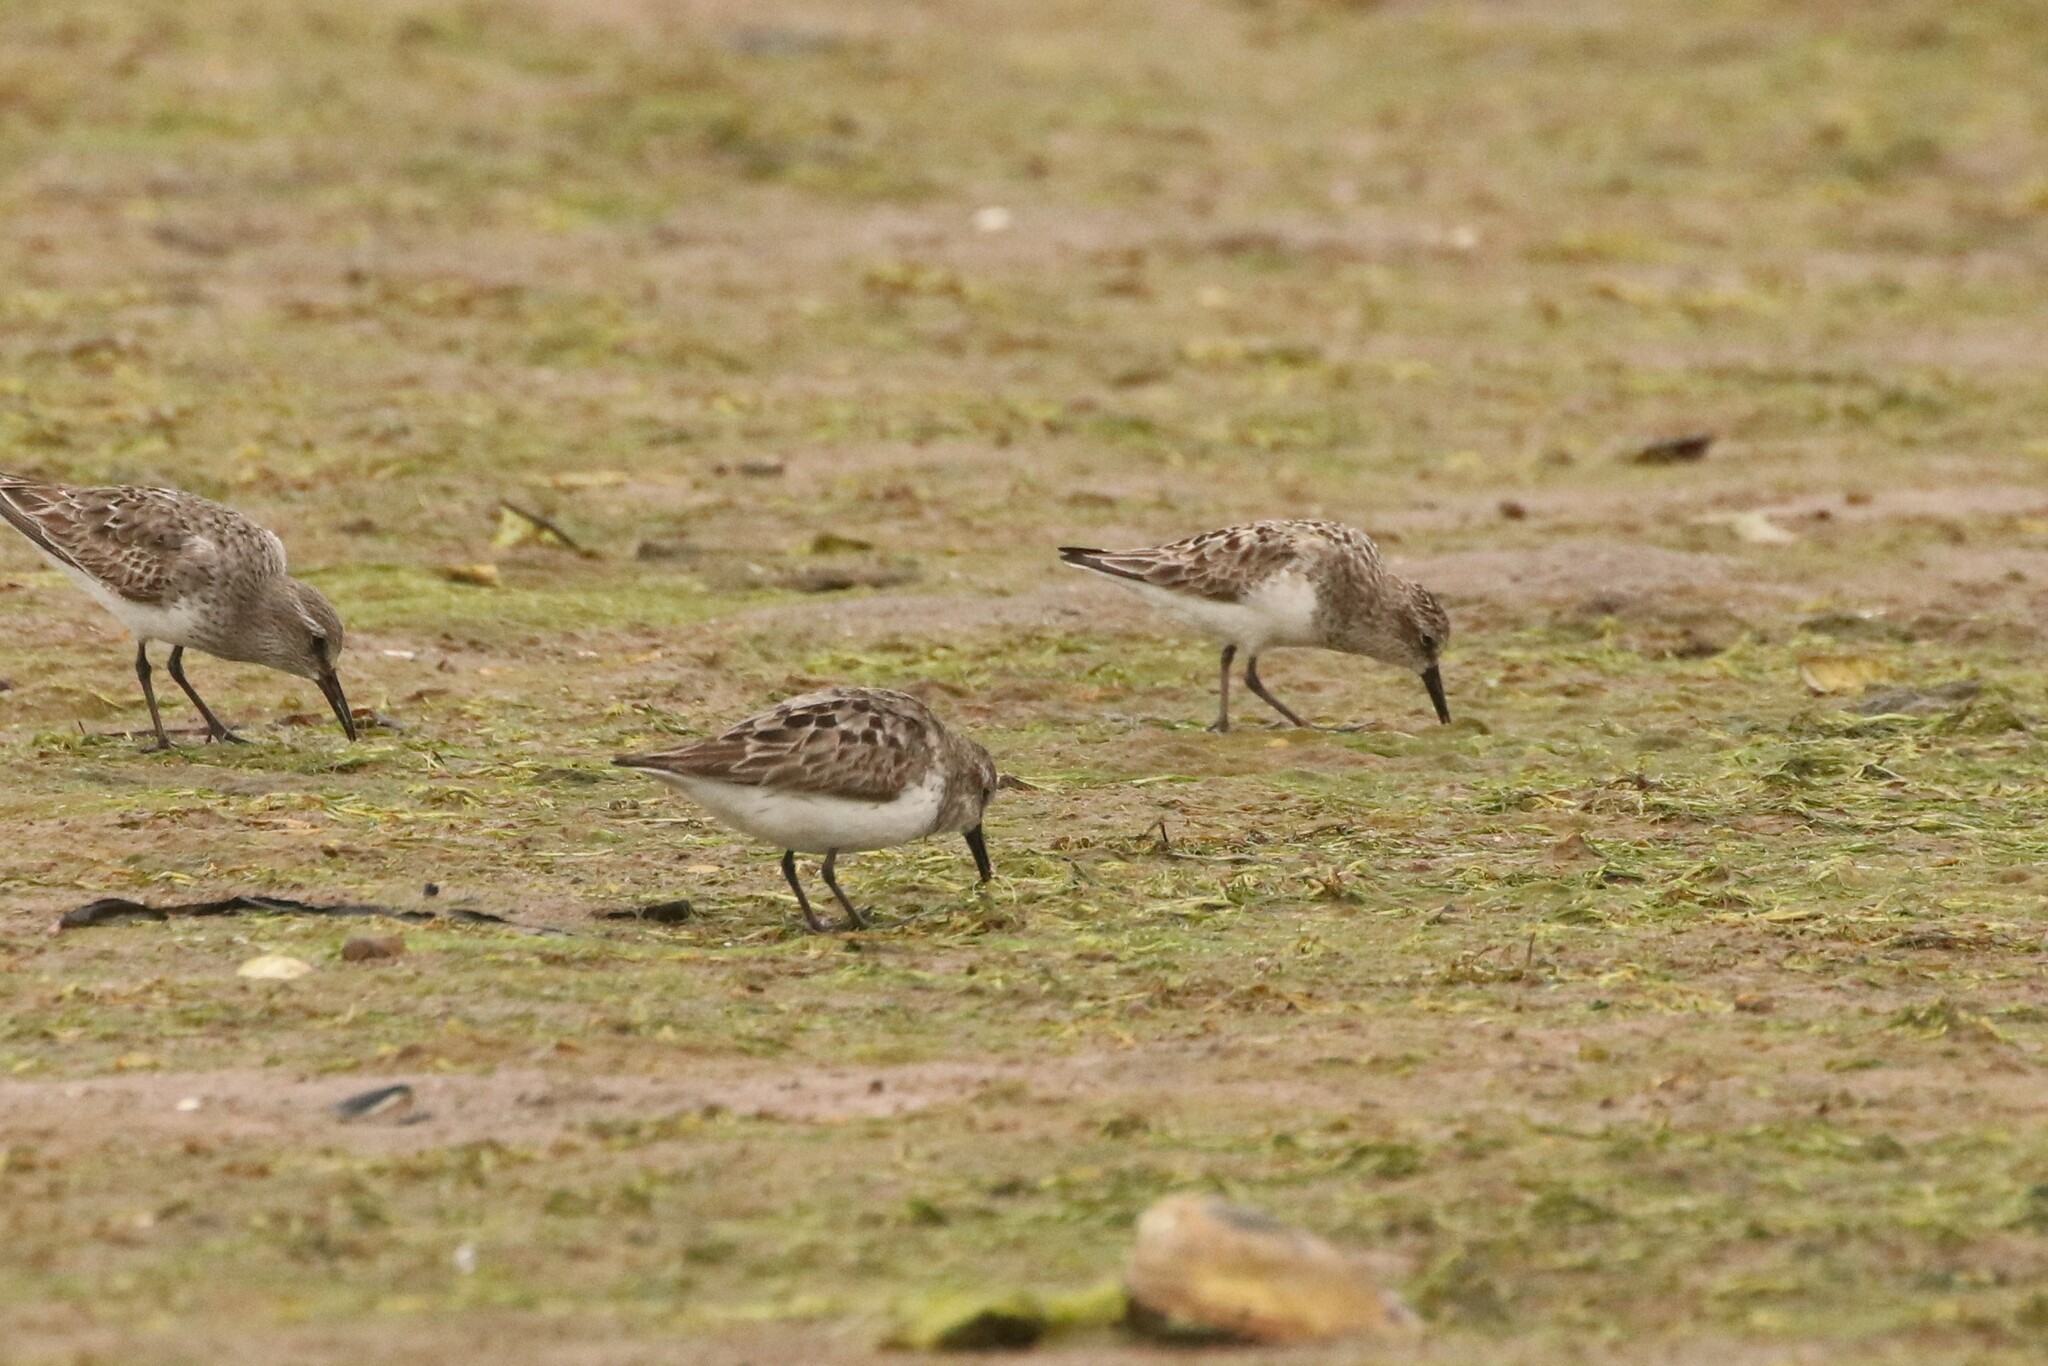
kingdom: Animalia
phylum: Chordata
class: Aves
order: Charadriiformes
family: Scolopacidae
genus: Calidris
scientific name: Calidris pusilla
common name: Semipalmated sandpiper
